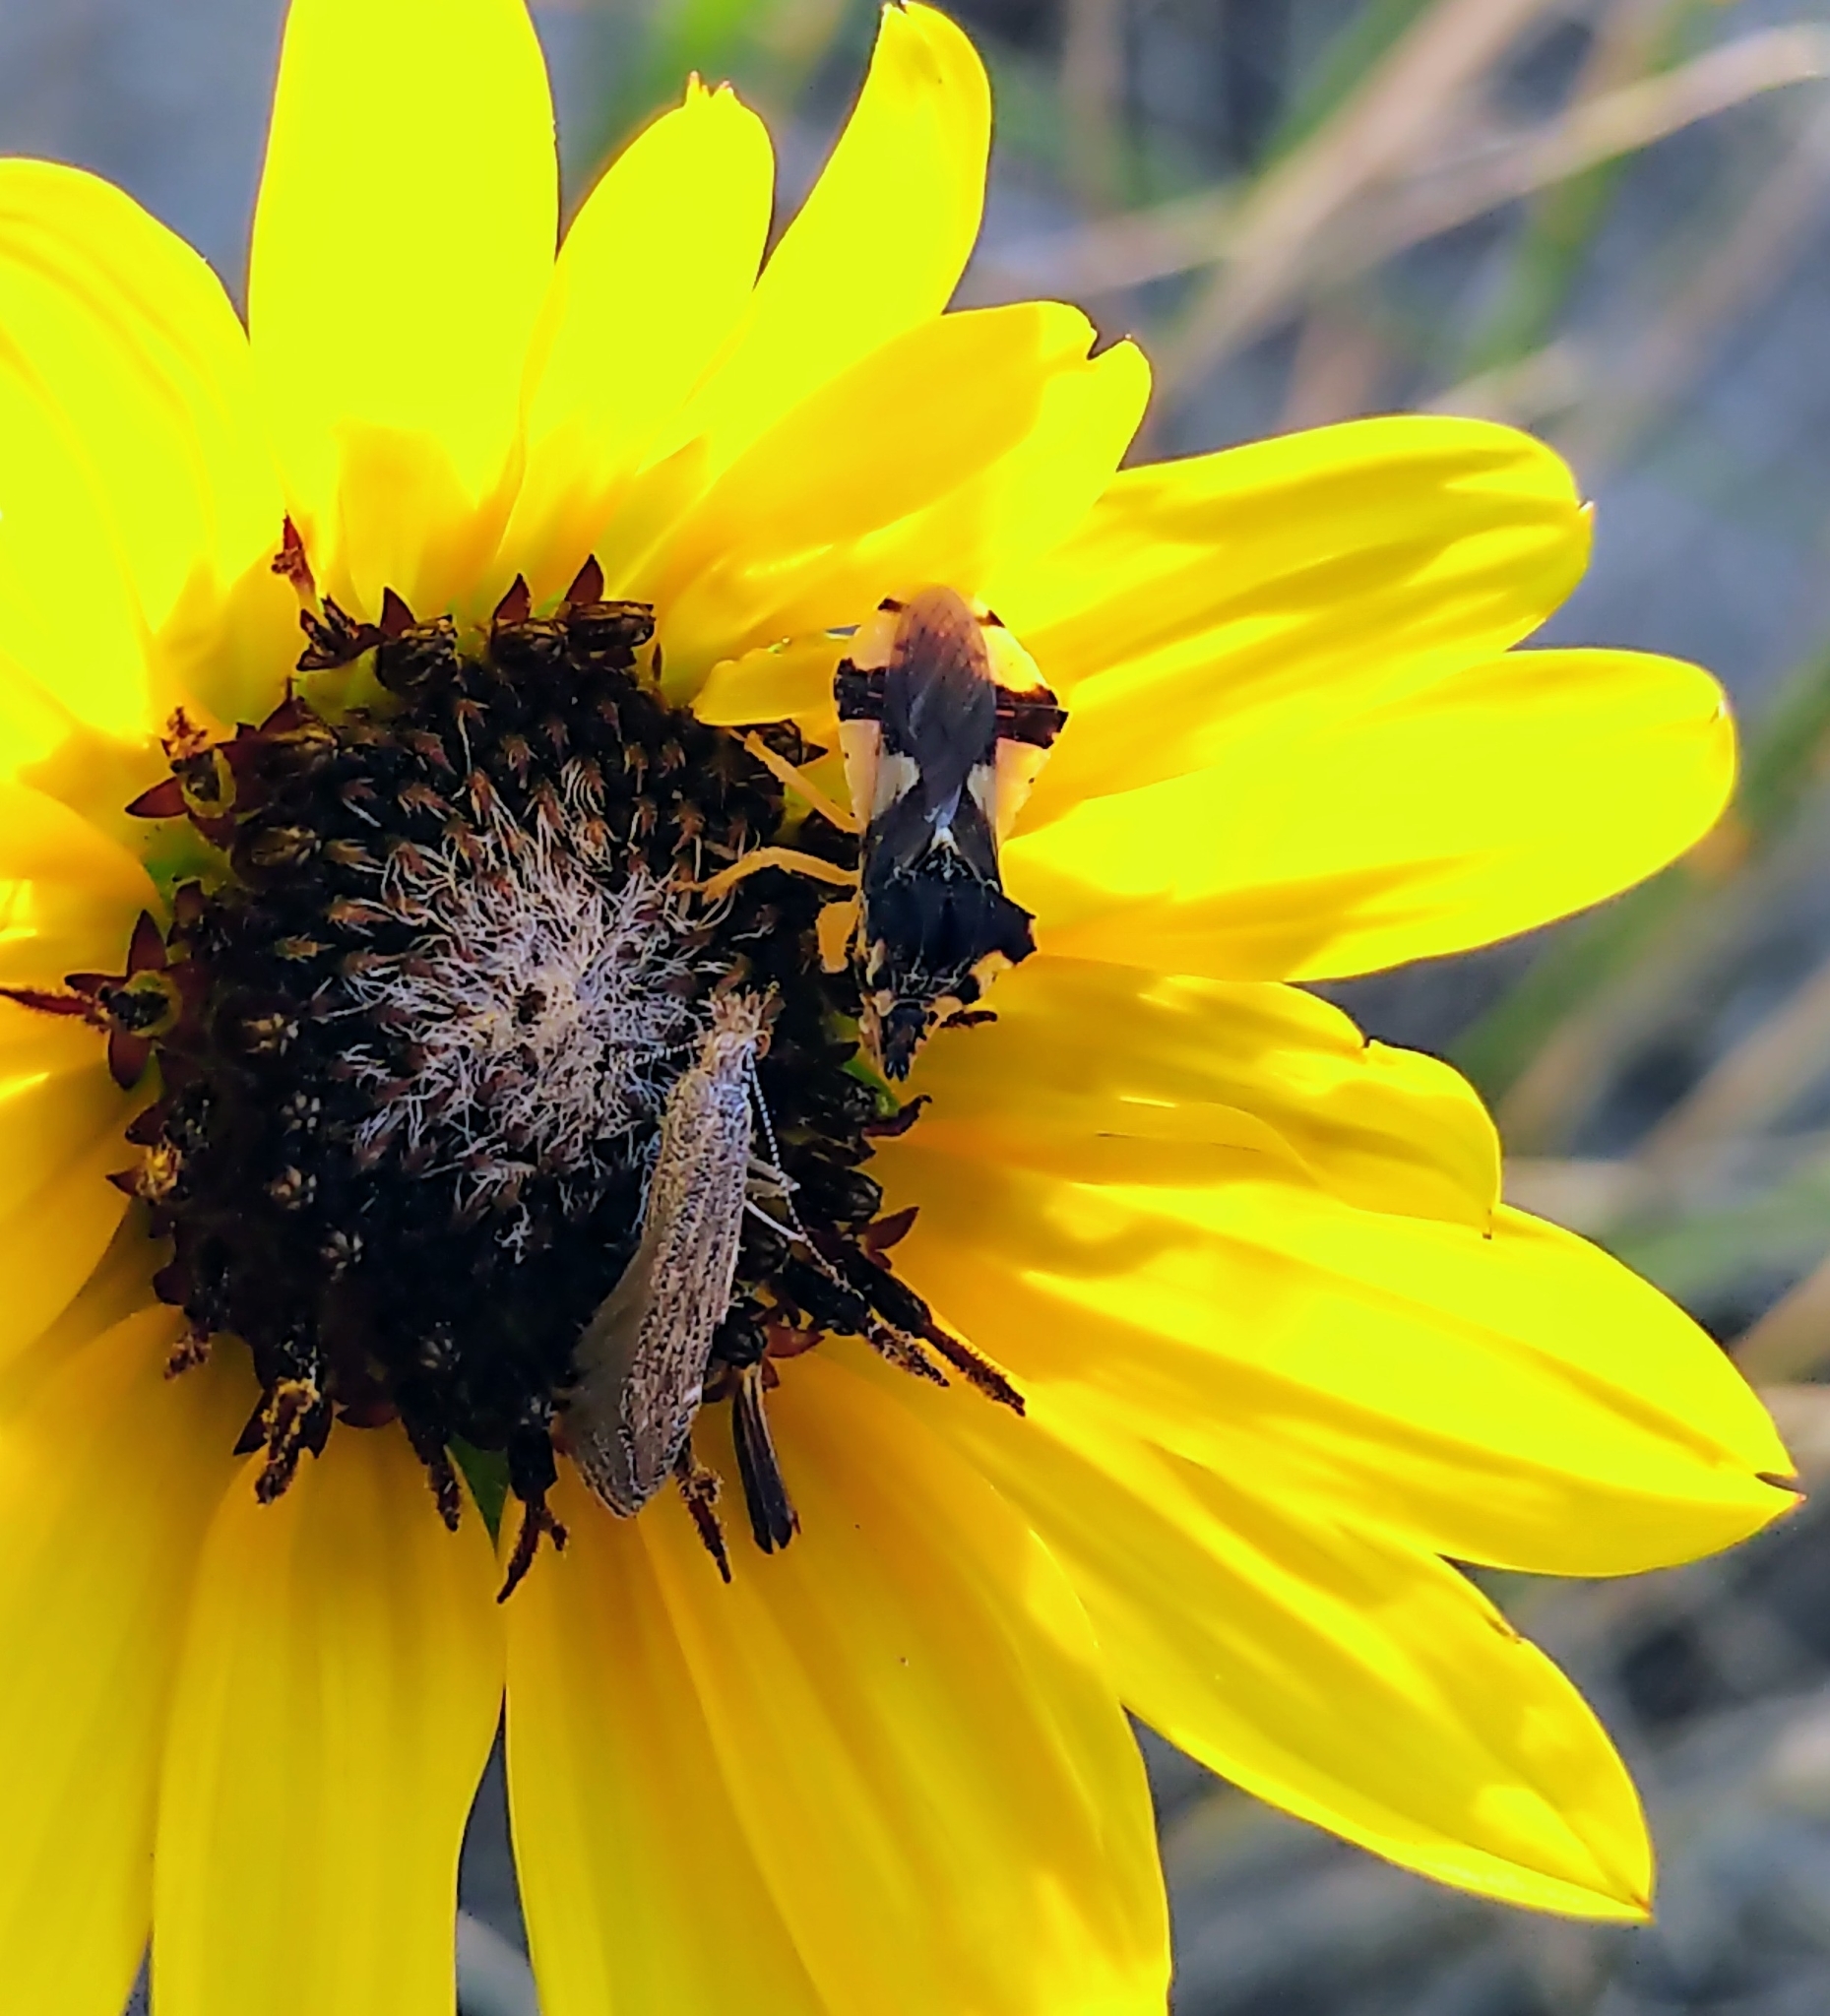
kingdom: Animalia
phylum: Arthropoda
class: Insecta
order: Hemiptera
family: Reduviidae
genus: Phymata
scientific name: Phymata americana
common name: Jagged ambush bug
